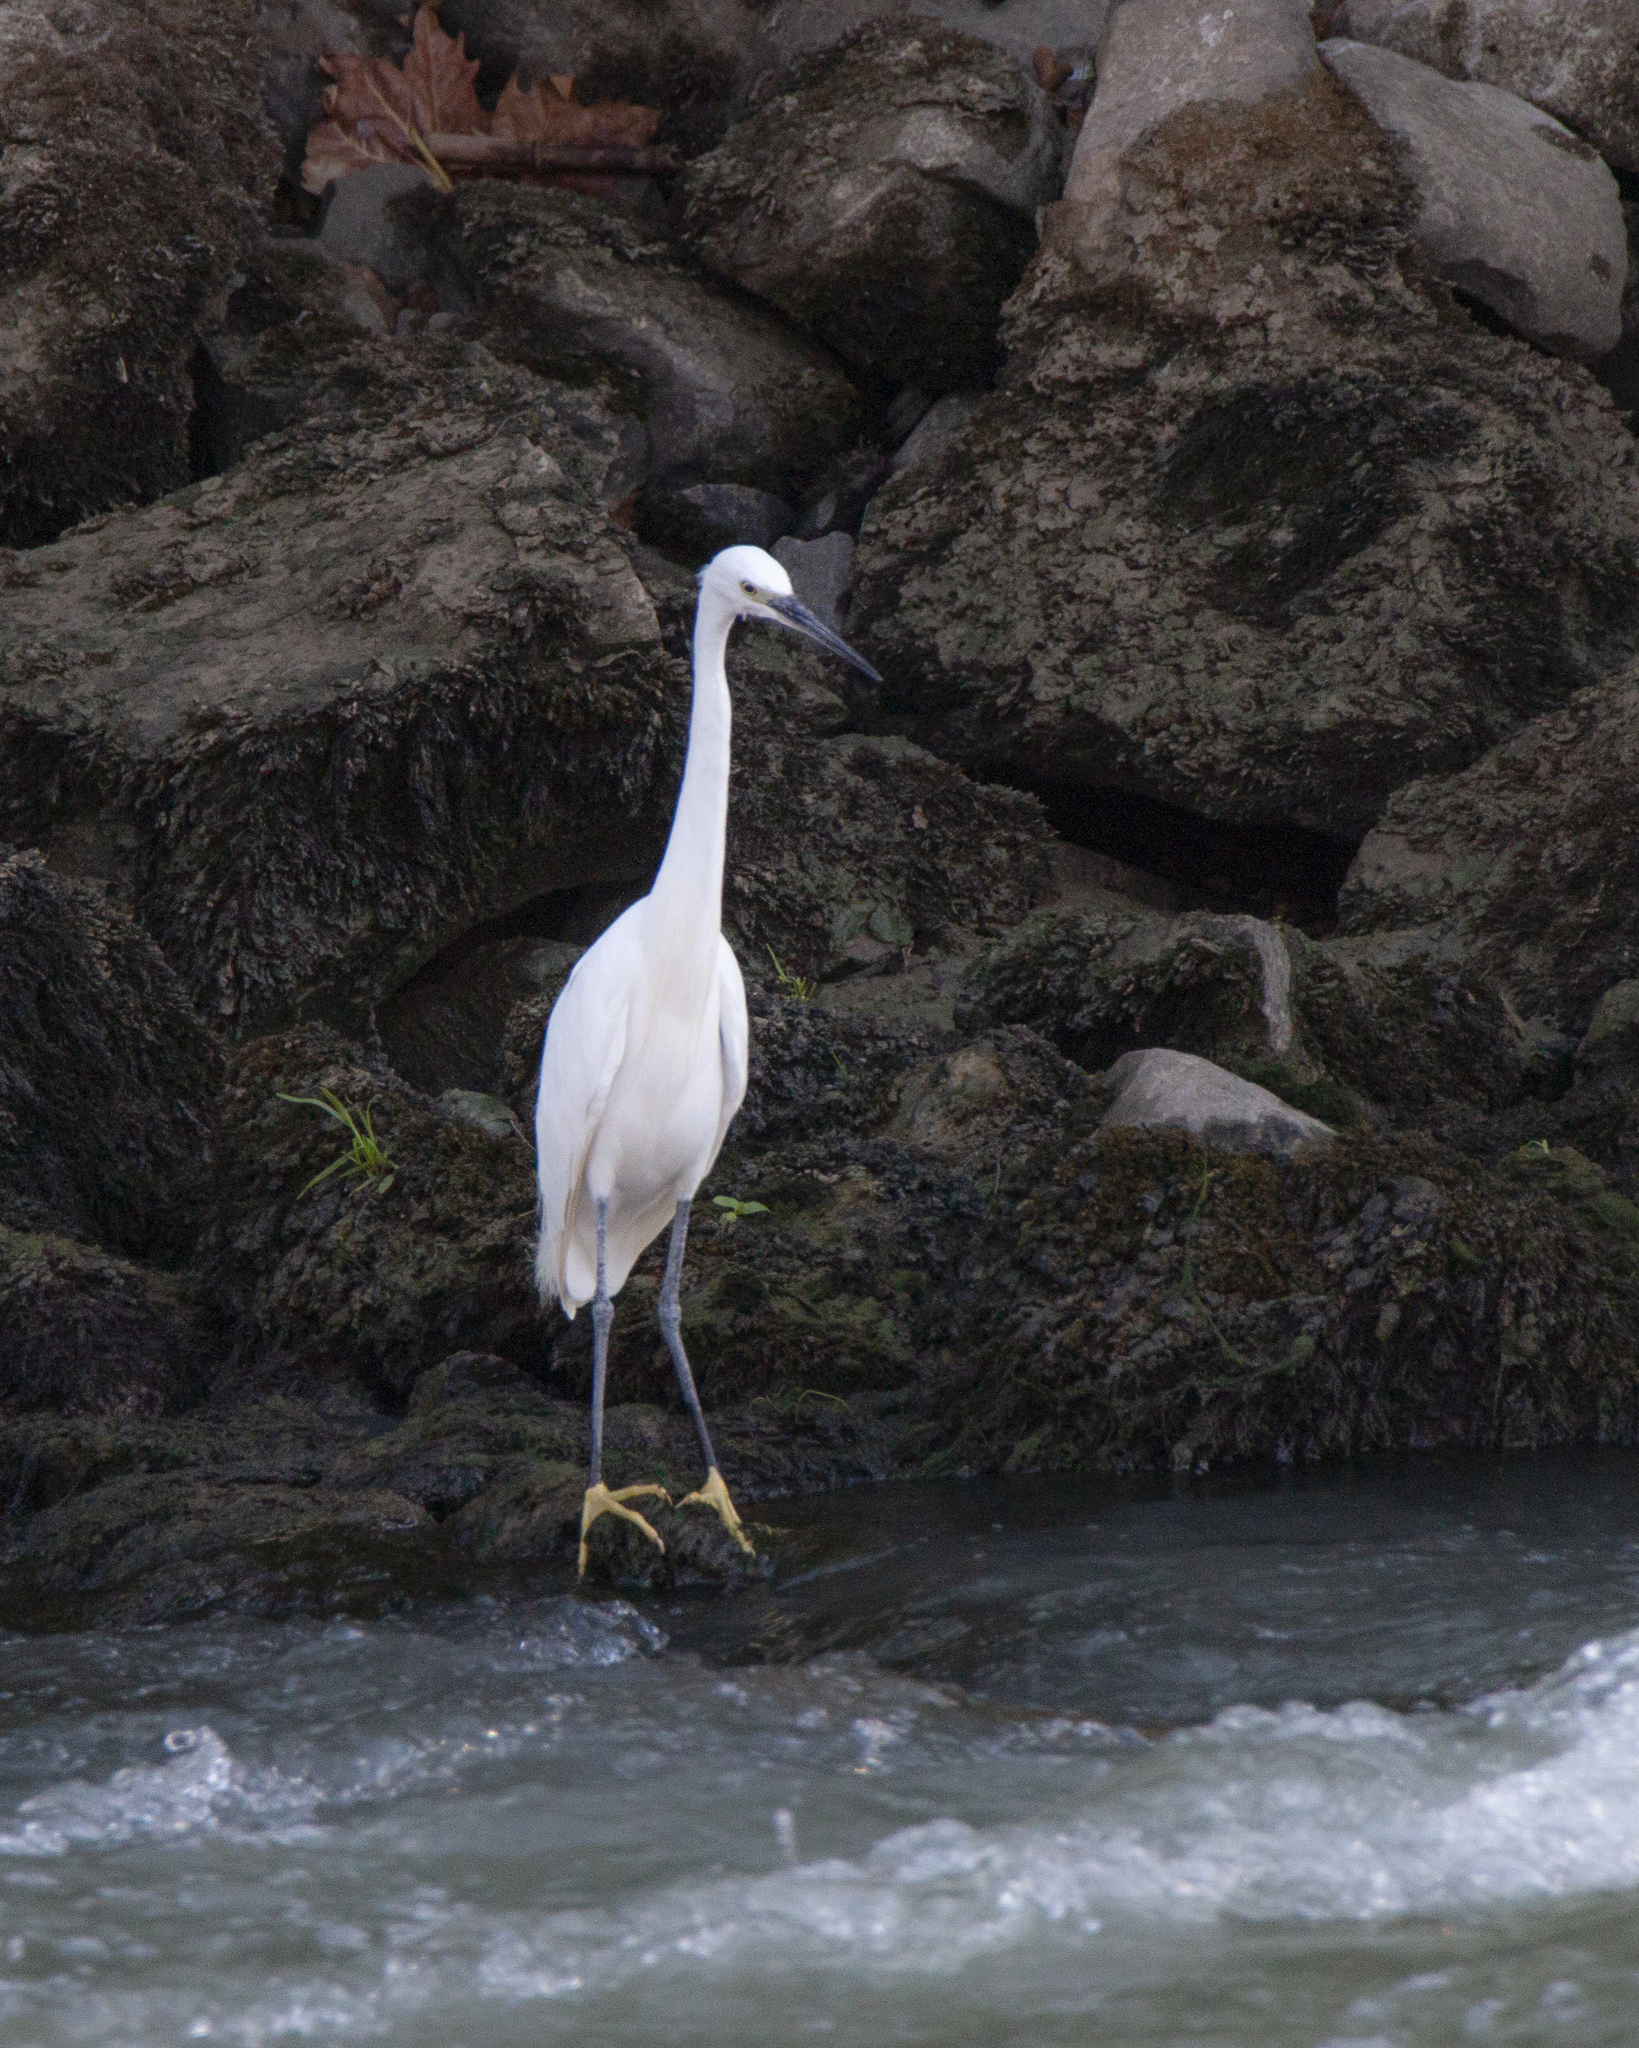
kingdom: Animalia
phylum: Chordata
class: Aves
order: Pelecaniformes
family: Ardeidae
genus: Egretta
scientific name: Egretta garzetta
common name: Little egret
